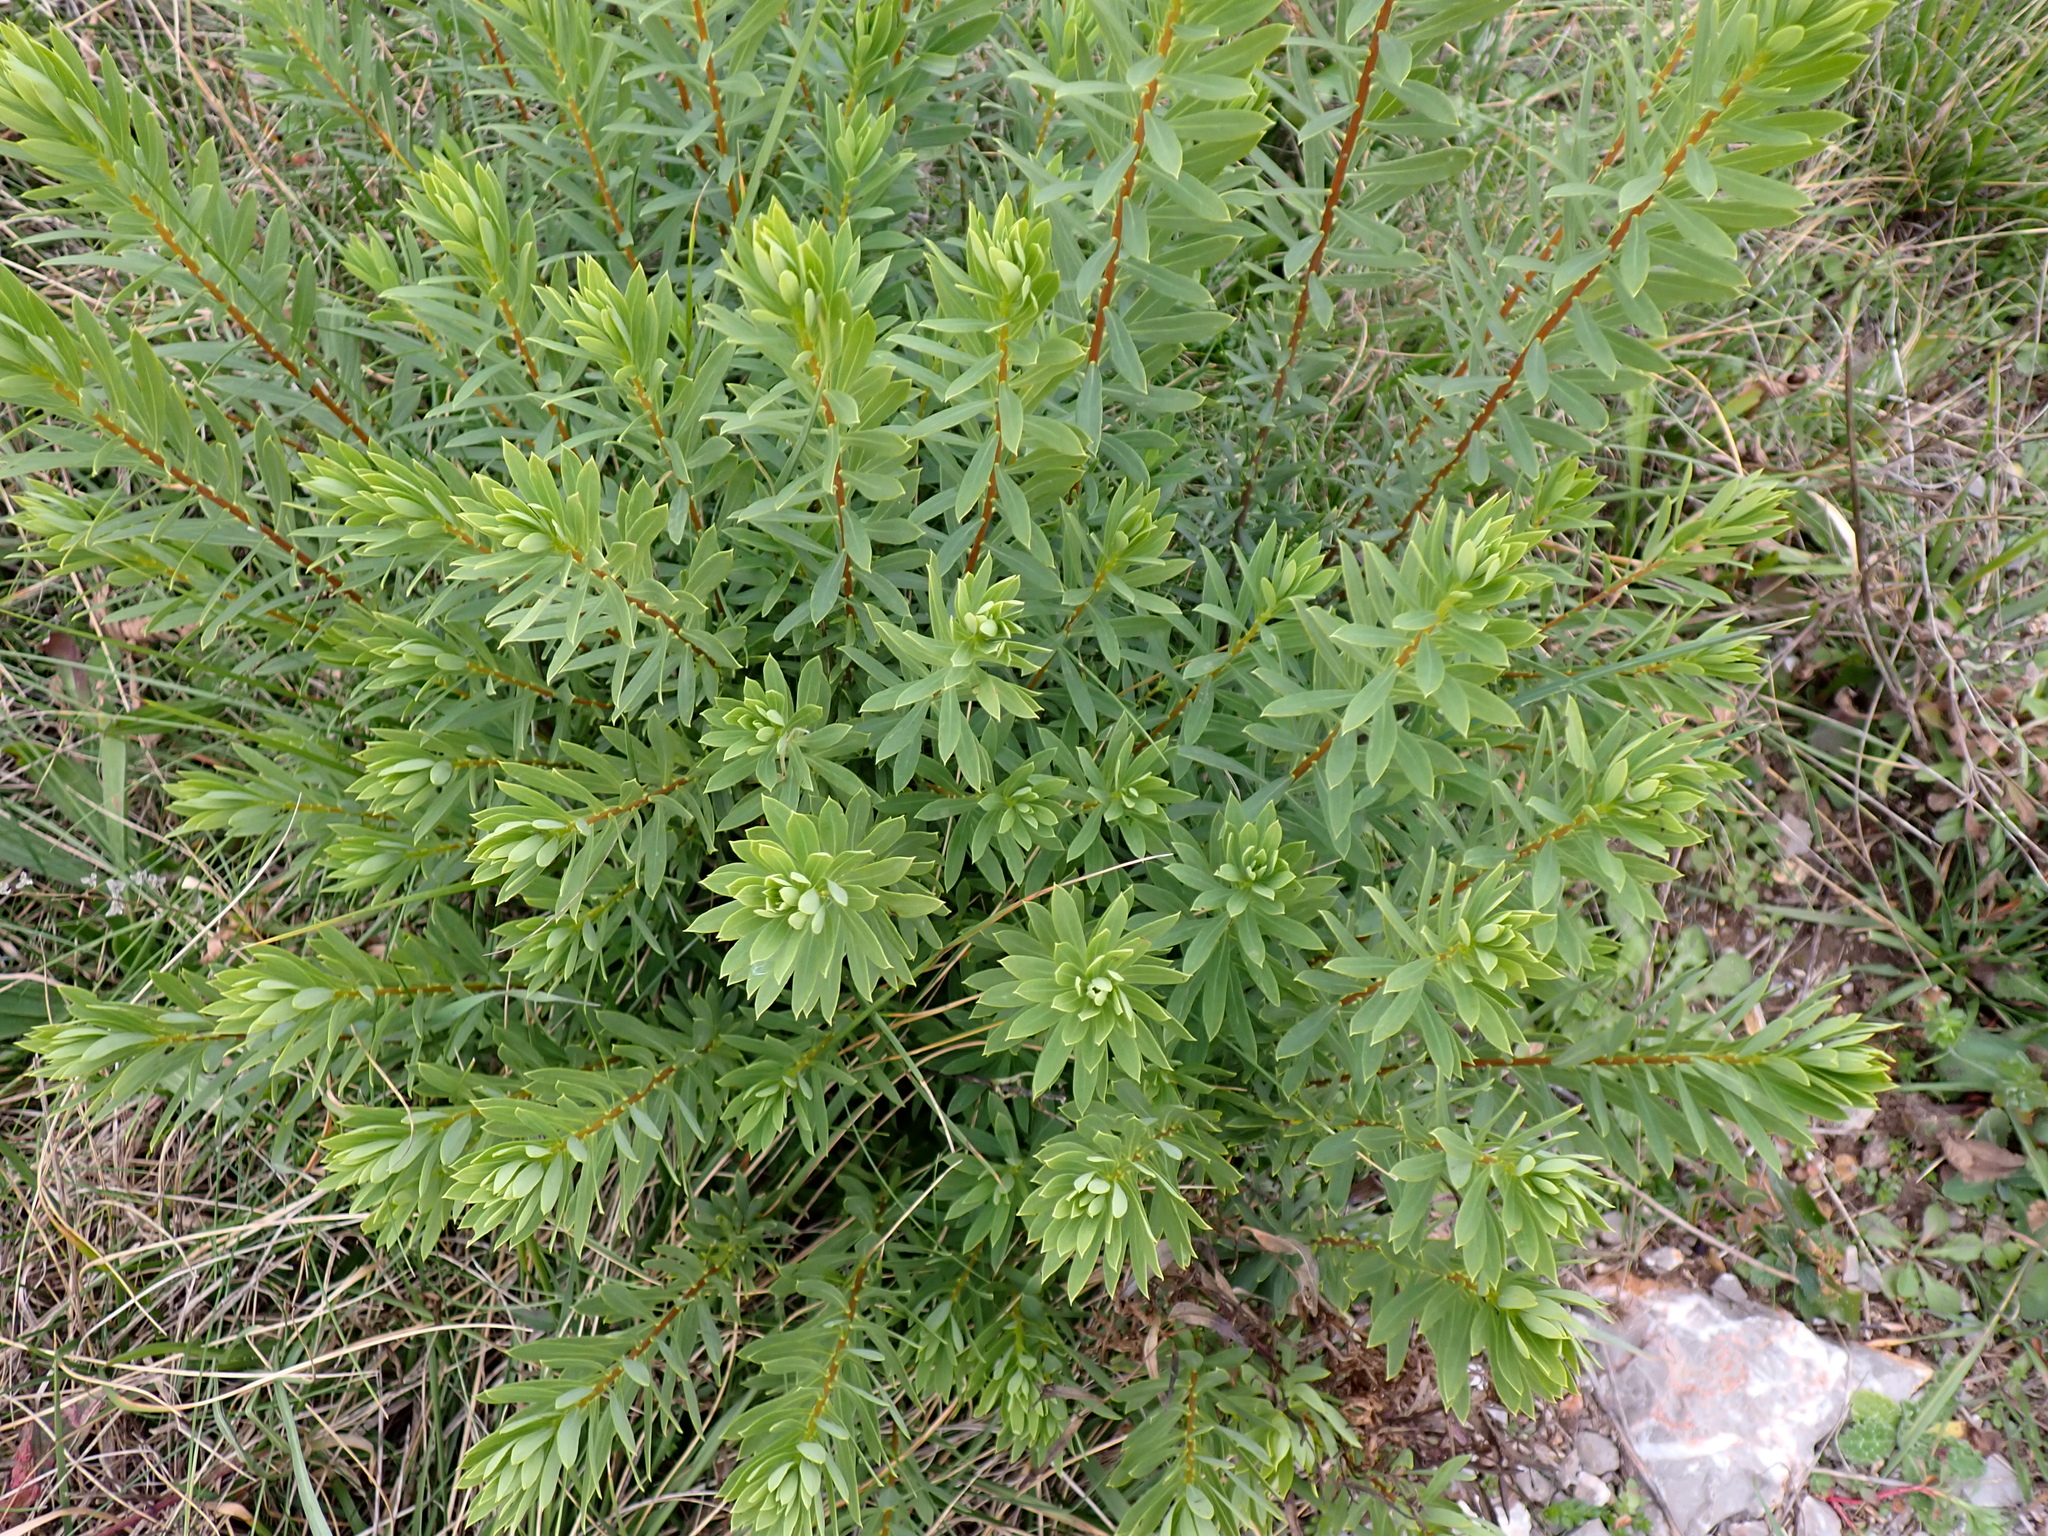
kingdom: Plantae
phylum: Tracheophyta
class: Magnoliopsida
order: Malvales
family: Thymelaeaceae
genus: Daphne
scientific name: Daphne gnidium
